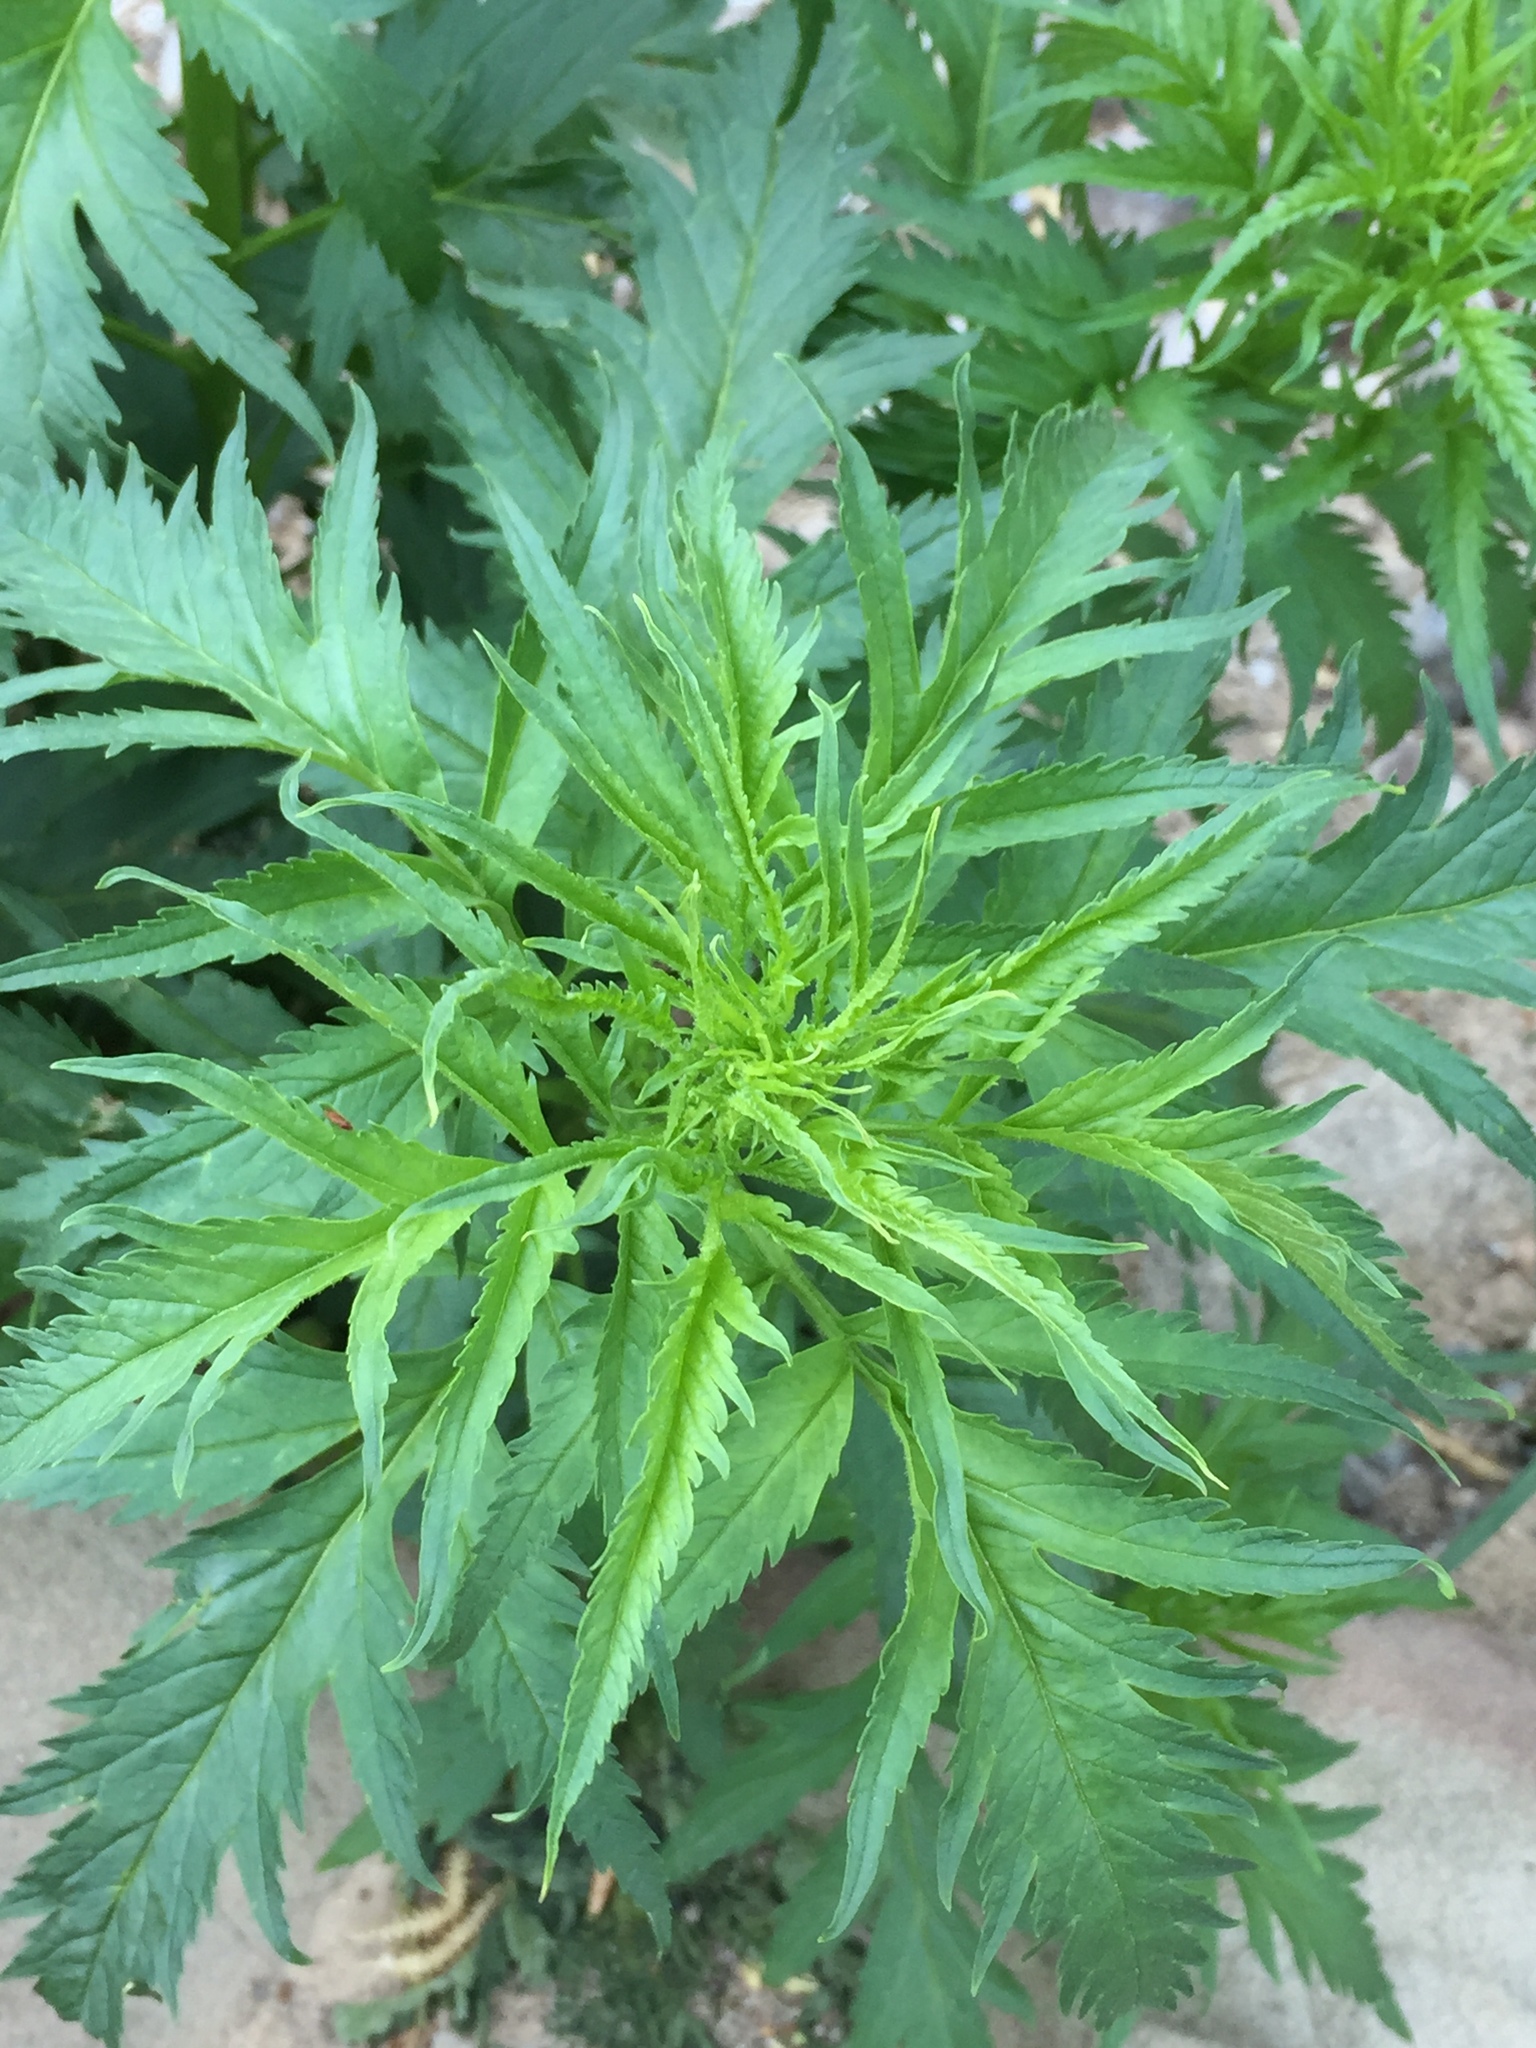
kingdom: Plantae
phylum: Tracheophyta
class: Magnoliopsida
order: Cucurbitales
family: Datiscaceae
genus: Datisca
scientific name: Datisca glomerata
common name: Durango-root
